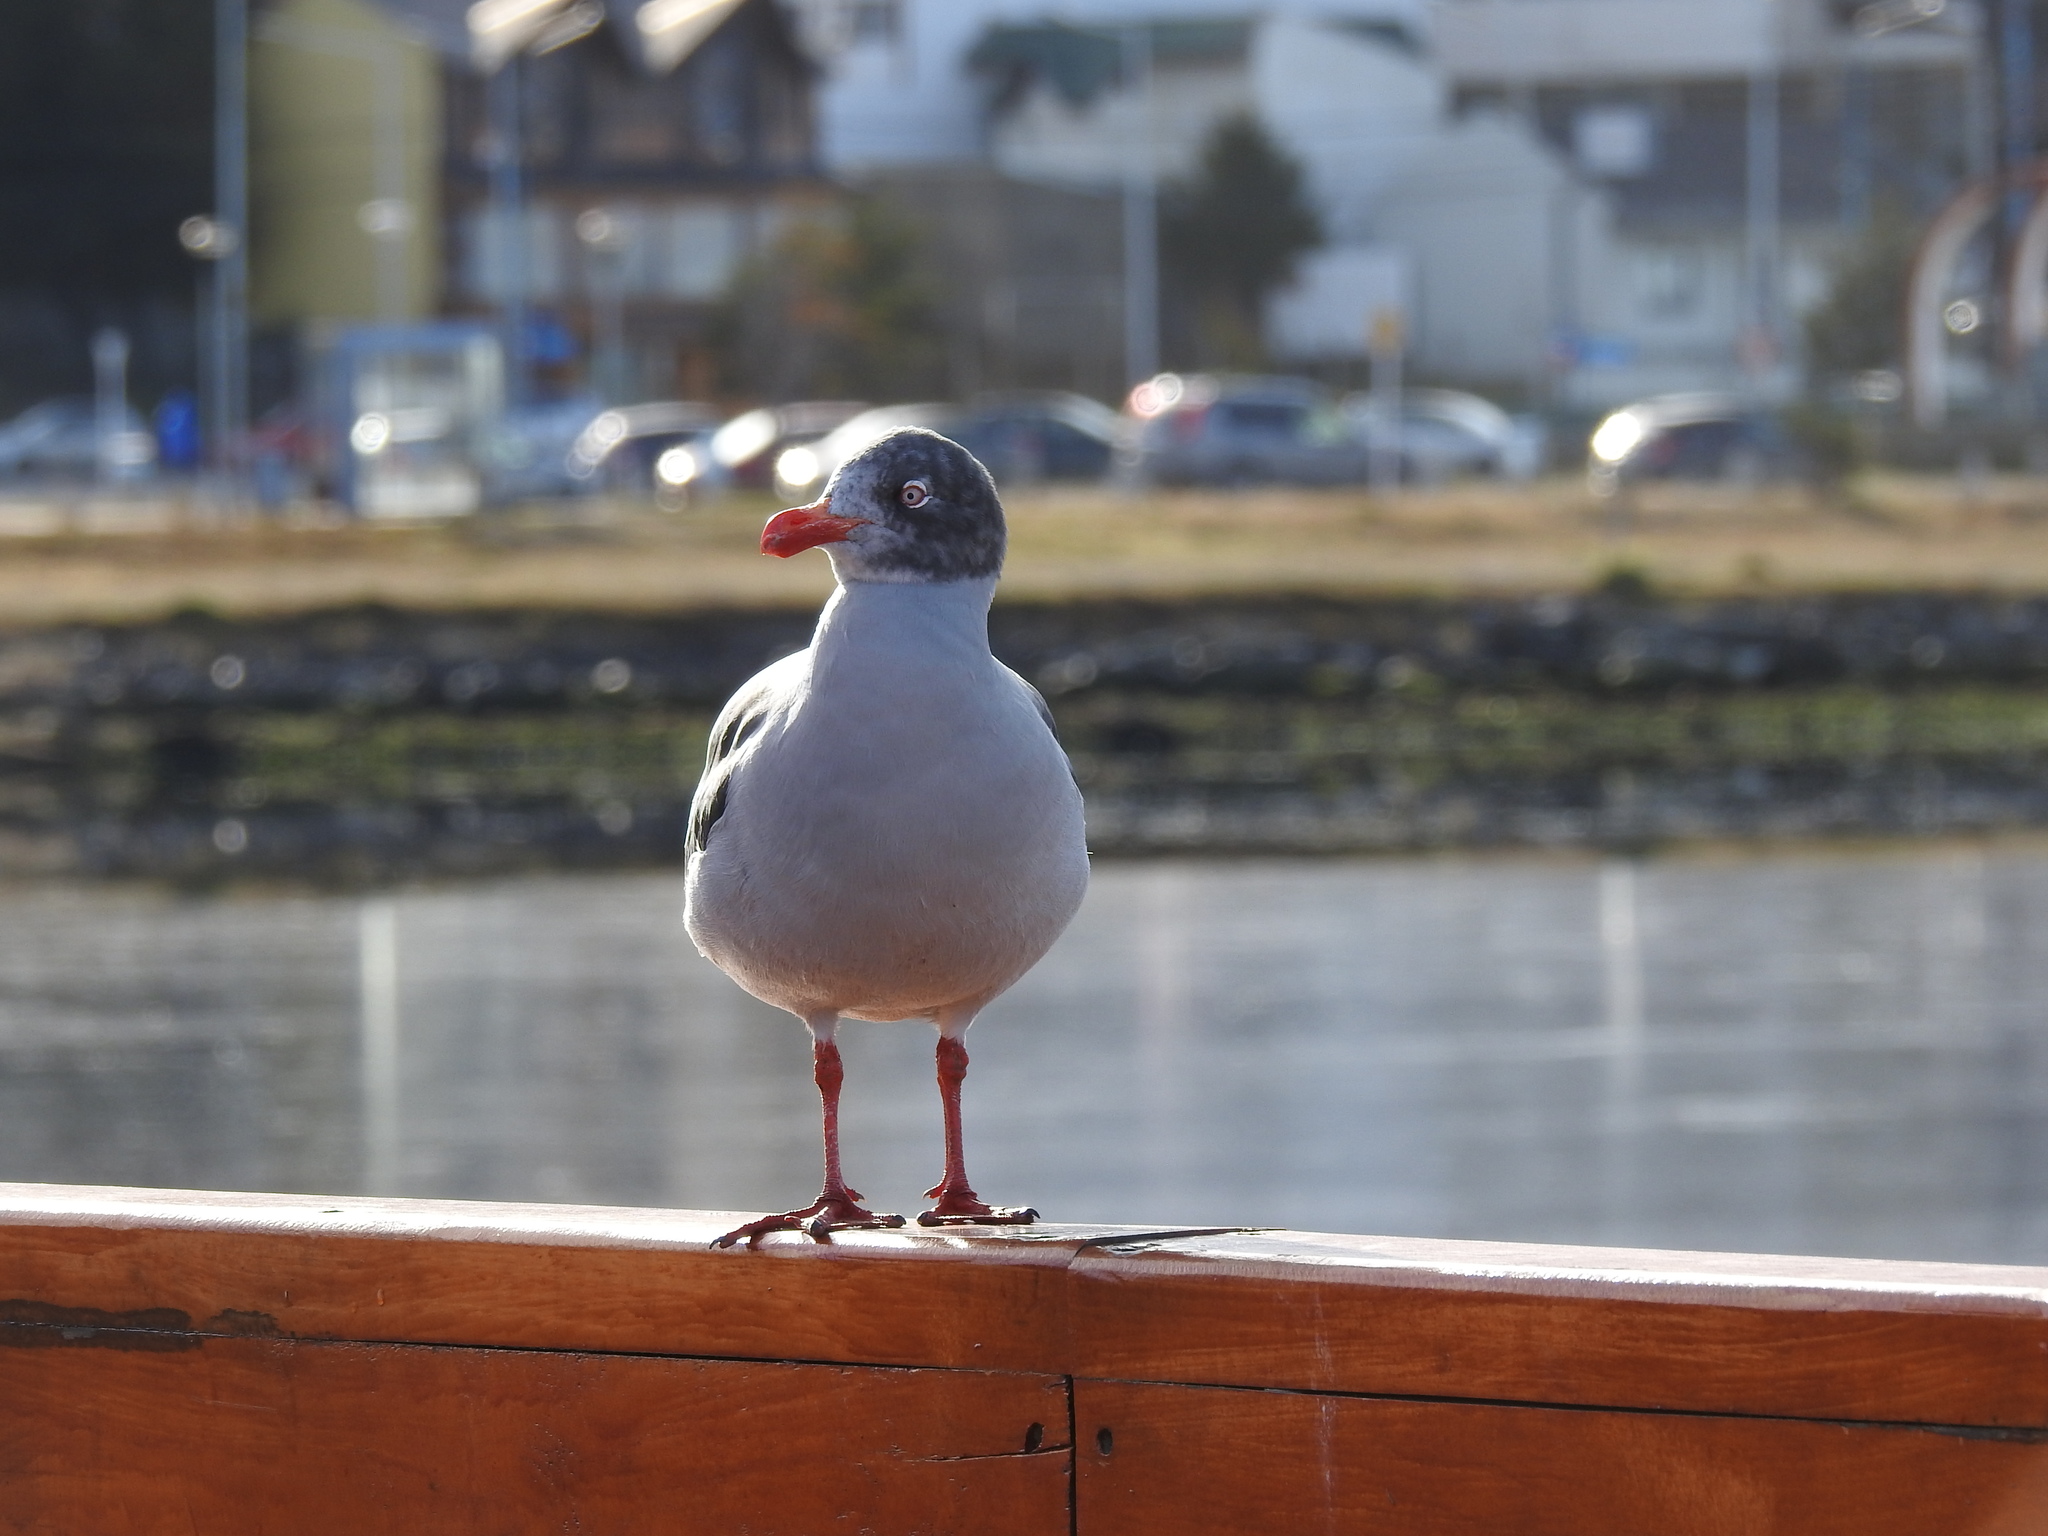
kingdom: Animalia
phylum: Chordata
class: Aves
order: Charadriiformes
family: Laridae
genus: Leucophaeus
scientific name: Leucophaeus scoresbii
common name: Dolphin gull
